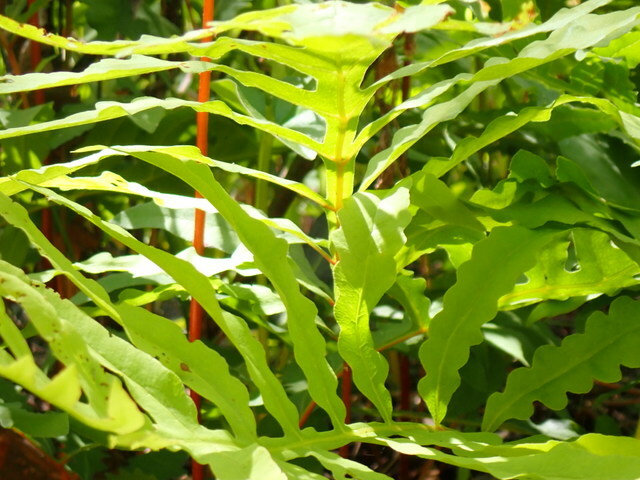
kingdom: Plantae
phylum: Tracheophyta
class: Polypodiopsida
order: Polypodiales
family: Onocleaceae
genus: Onoclea
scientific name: Onoclea sensibilis
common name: Sensitive fern
